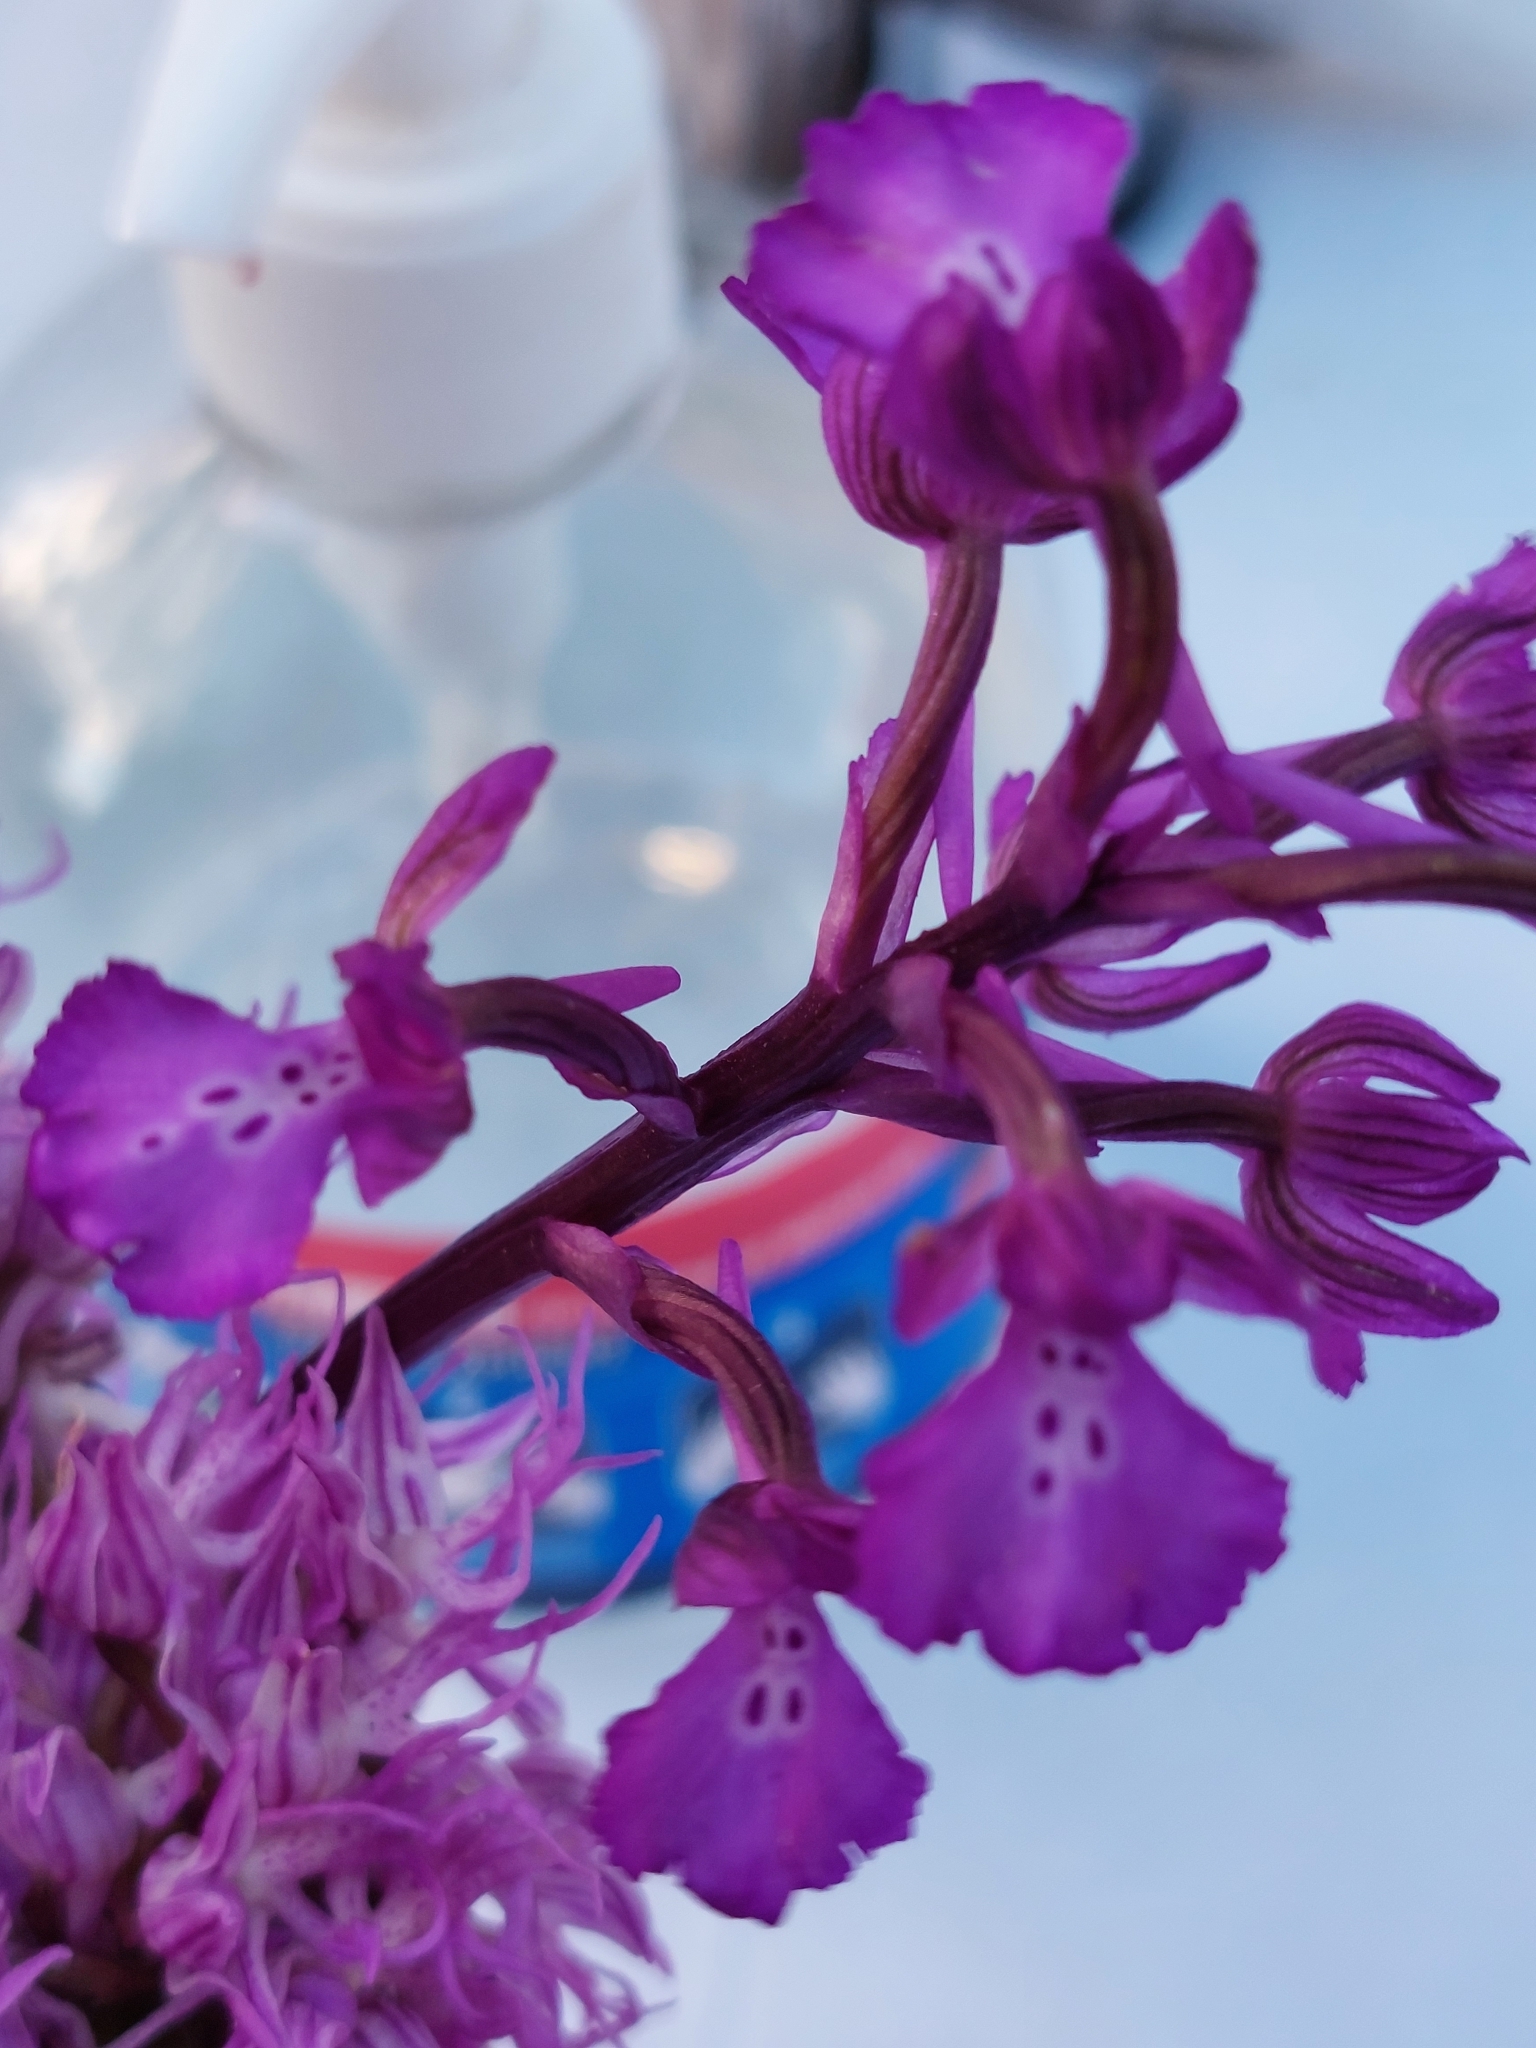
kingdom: Plantae
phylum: Tracheophyta
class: Liliopsida
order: Asparagales
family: Orchidaceae
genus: Anacamptis
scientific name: Anacamptis boryi
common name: Bory's anacamptis
